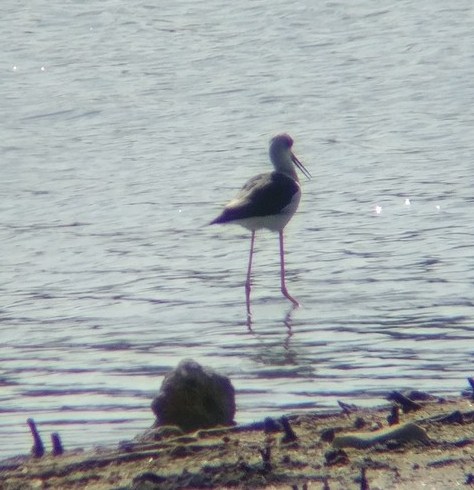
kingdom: Animalia
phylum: Chordata
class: Aves
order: Charadriiformes
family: Recurvirostridae
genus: Himantopus
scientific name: Himantopus himantopus
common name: Black-winged stilt
